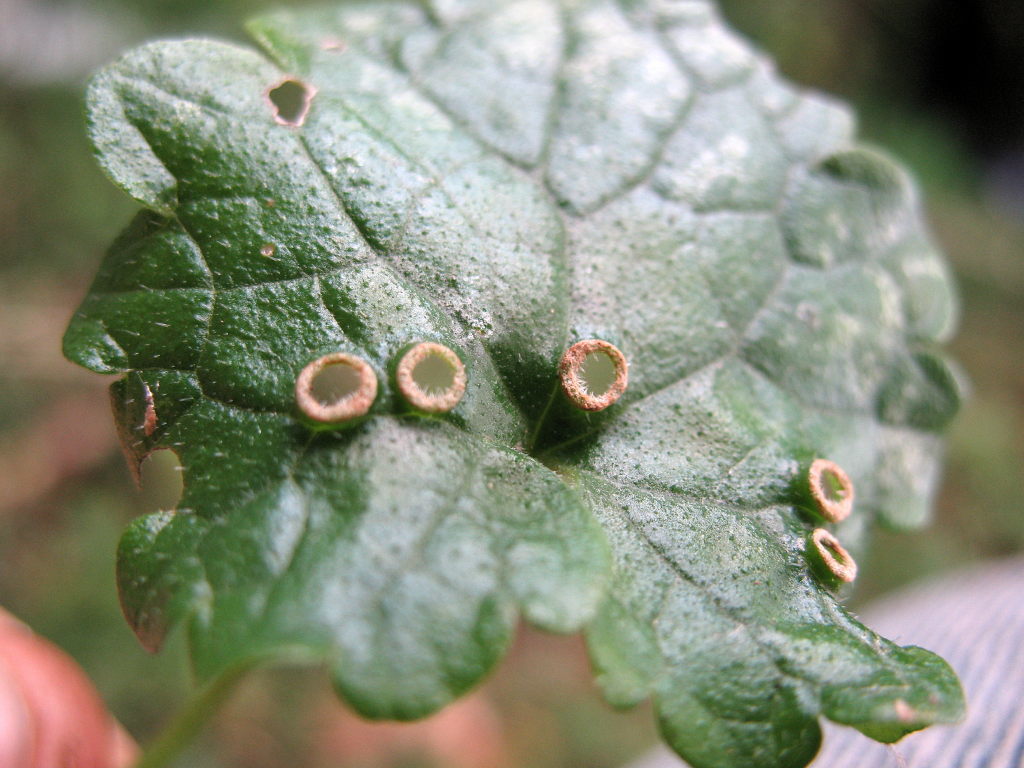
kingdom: Animalia
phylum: Arthropoda
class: Insecta
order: Diptera
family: Cecidomyiidae
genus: Rondaniola
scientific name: Rondaniola bursaria
